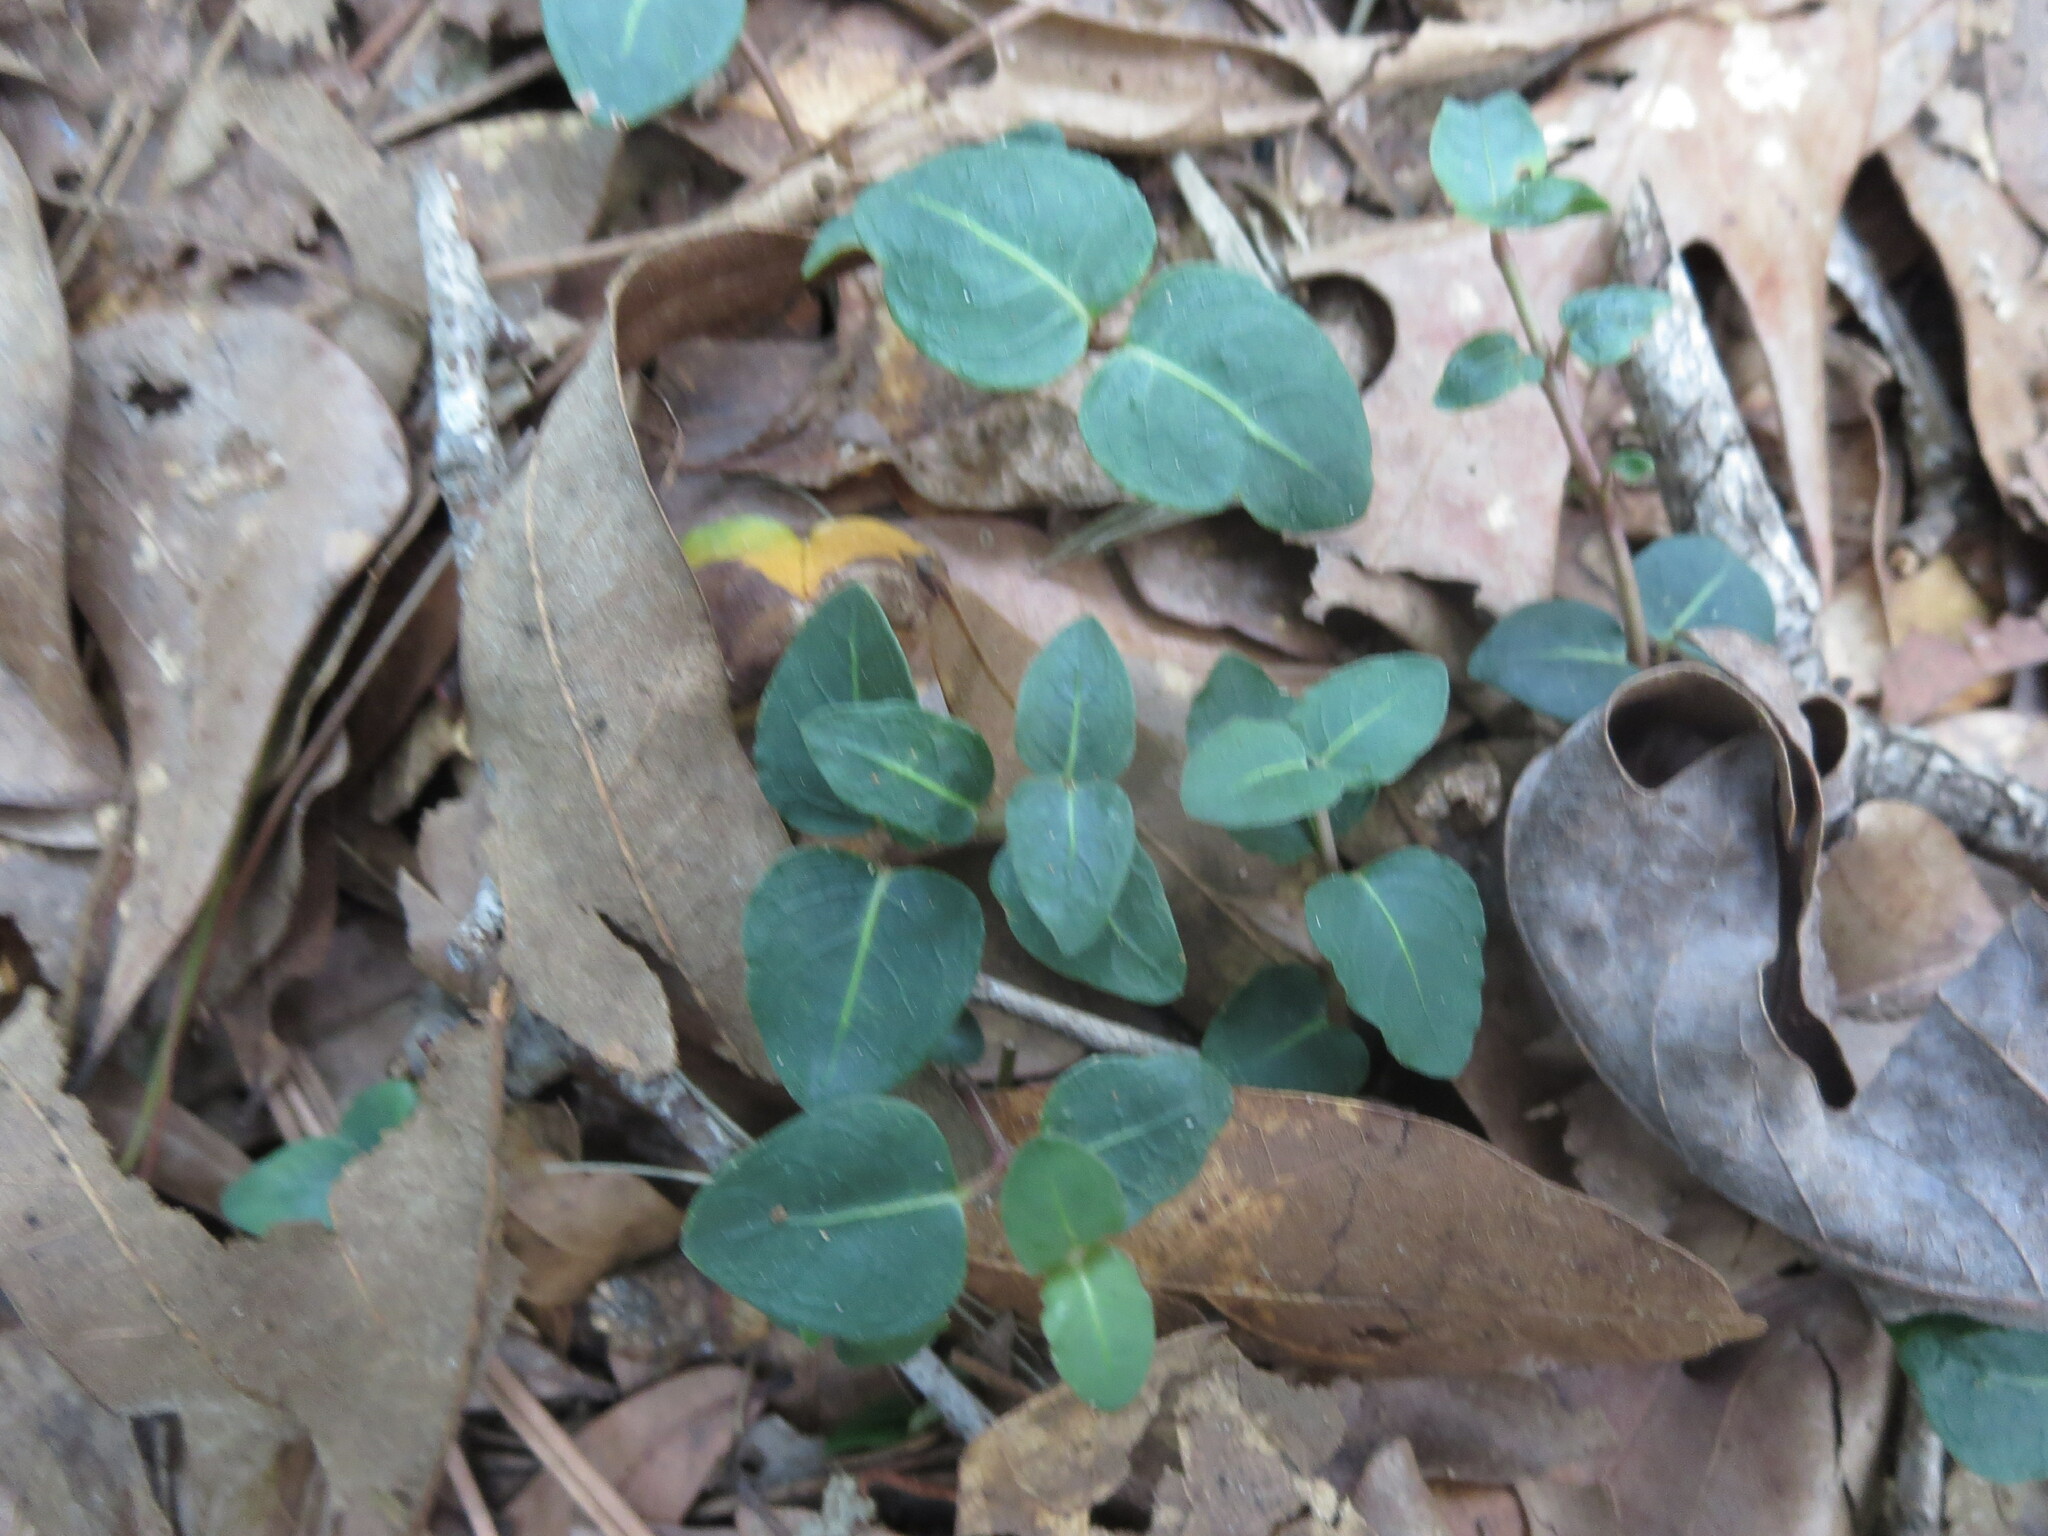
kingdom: Plantae
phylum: Tracheophyta
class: Magnoliopsida
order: Gentianales
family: Rubiaceae
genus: Mitchella
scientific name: Mitchella repens
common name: Partridge-berry
